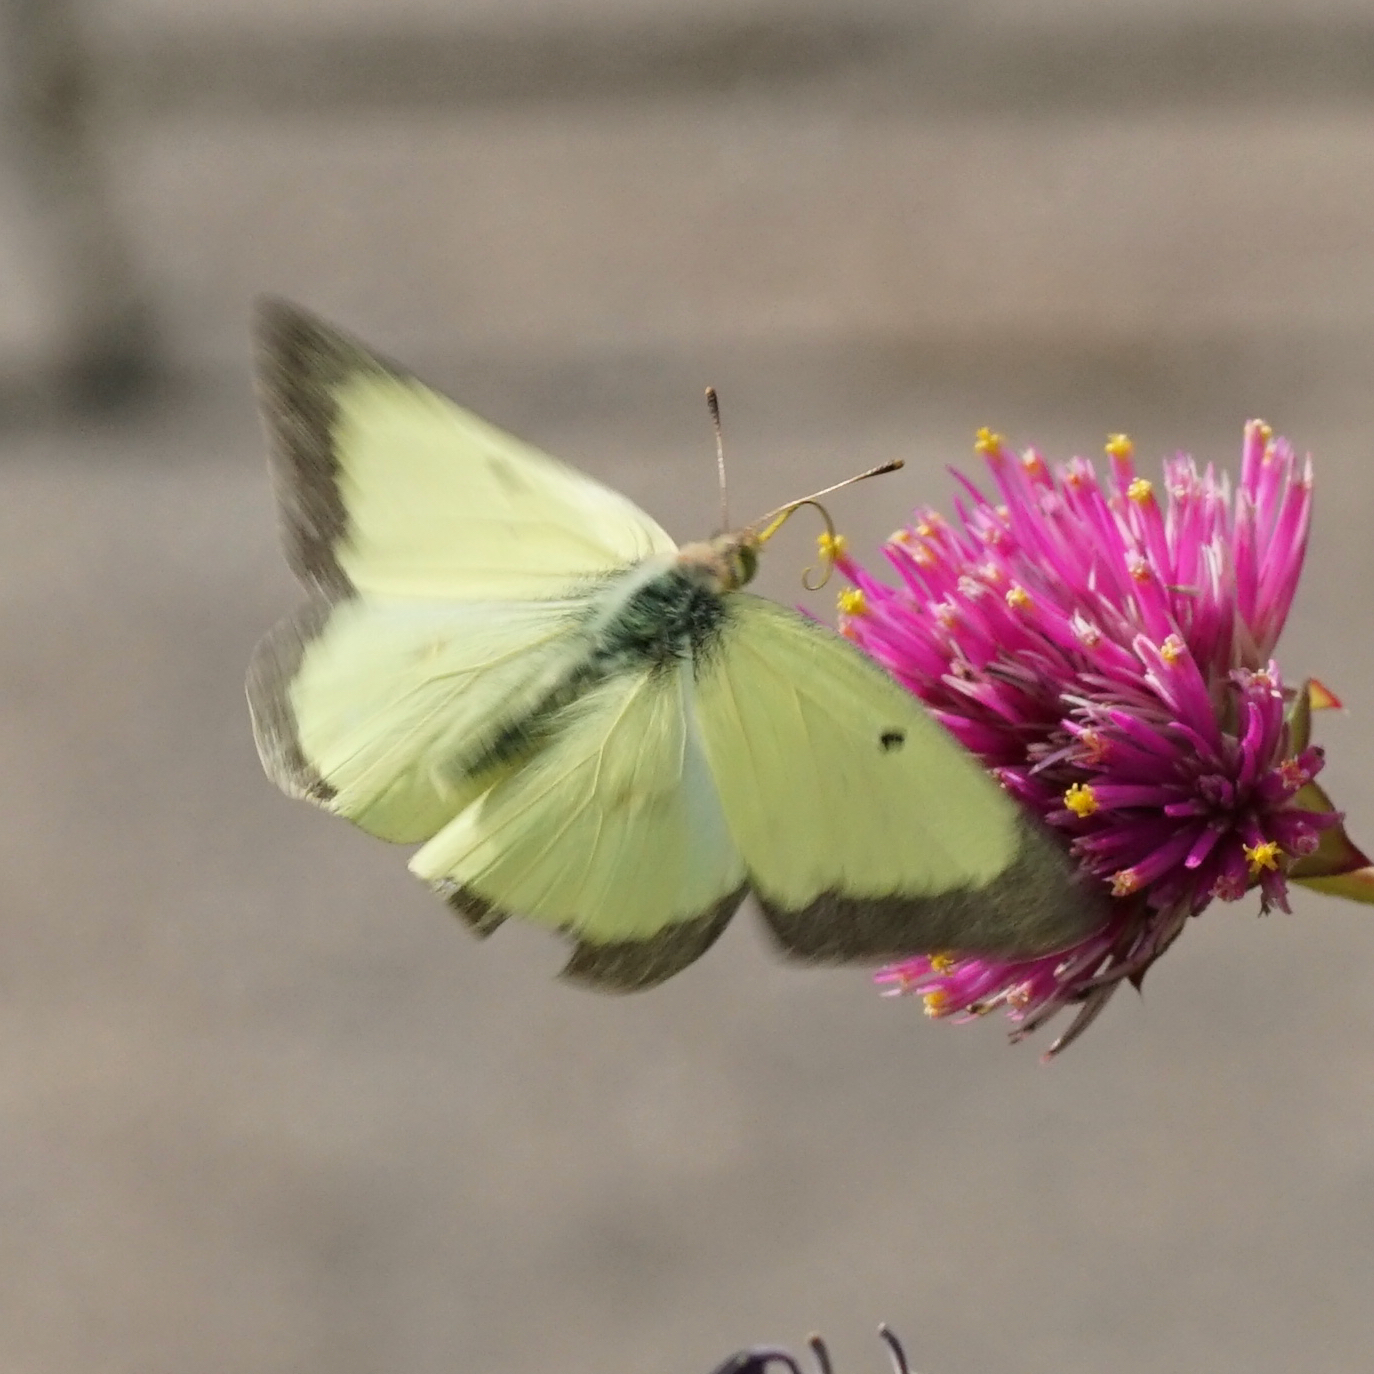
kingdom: Animalia
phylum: Arthropoda
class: Insecta
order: Lepidoptera
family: Pieridae
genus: Colias
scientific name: Colias philodice
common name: Clouded sulphur
